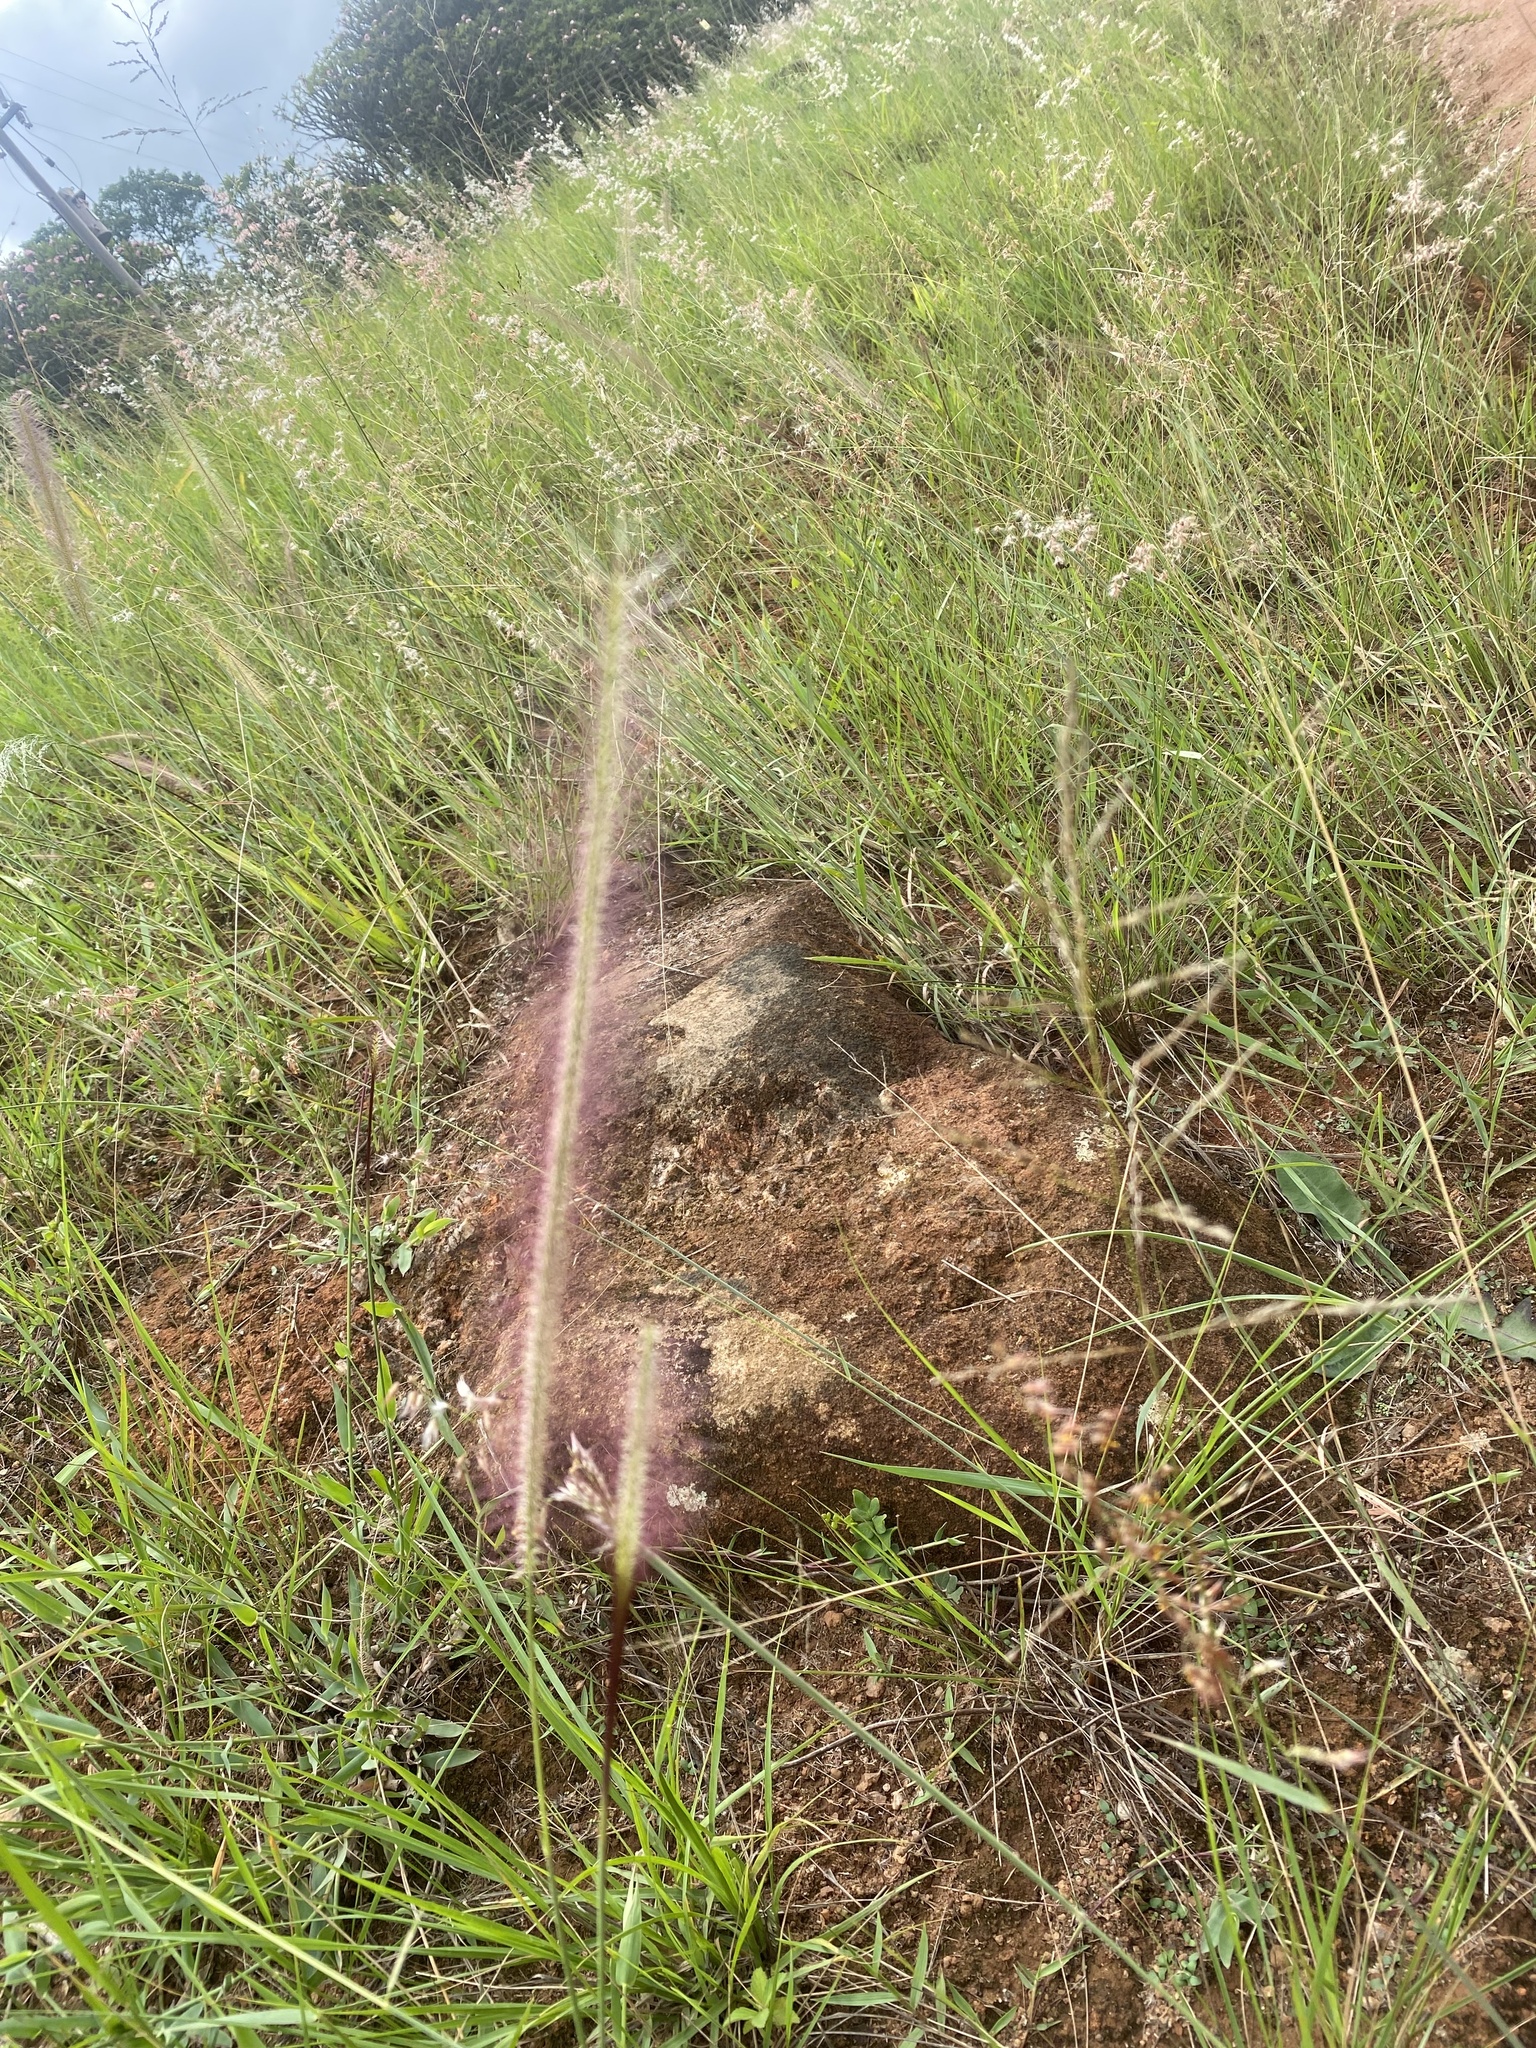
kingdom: Plantae
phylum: Tracheophyta
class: Liliopsida
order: Poales
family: Poaceae
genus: Perotis
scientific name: Perotis patens
